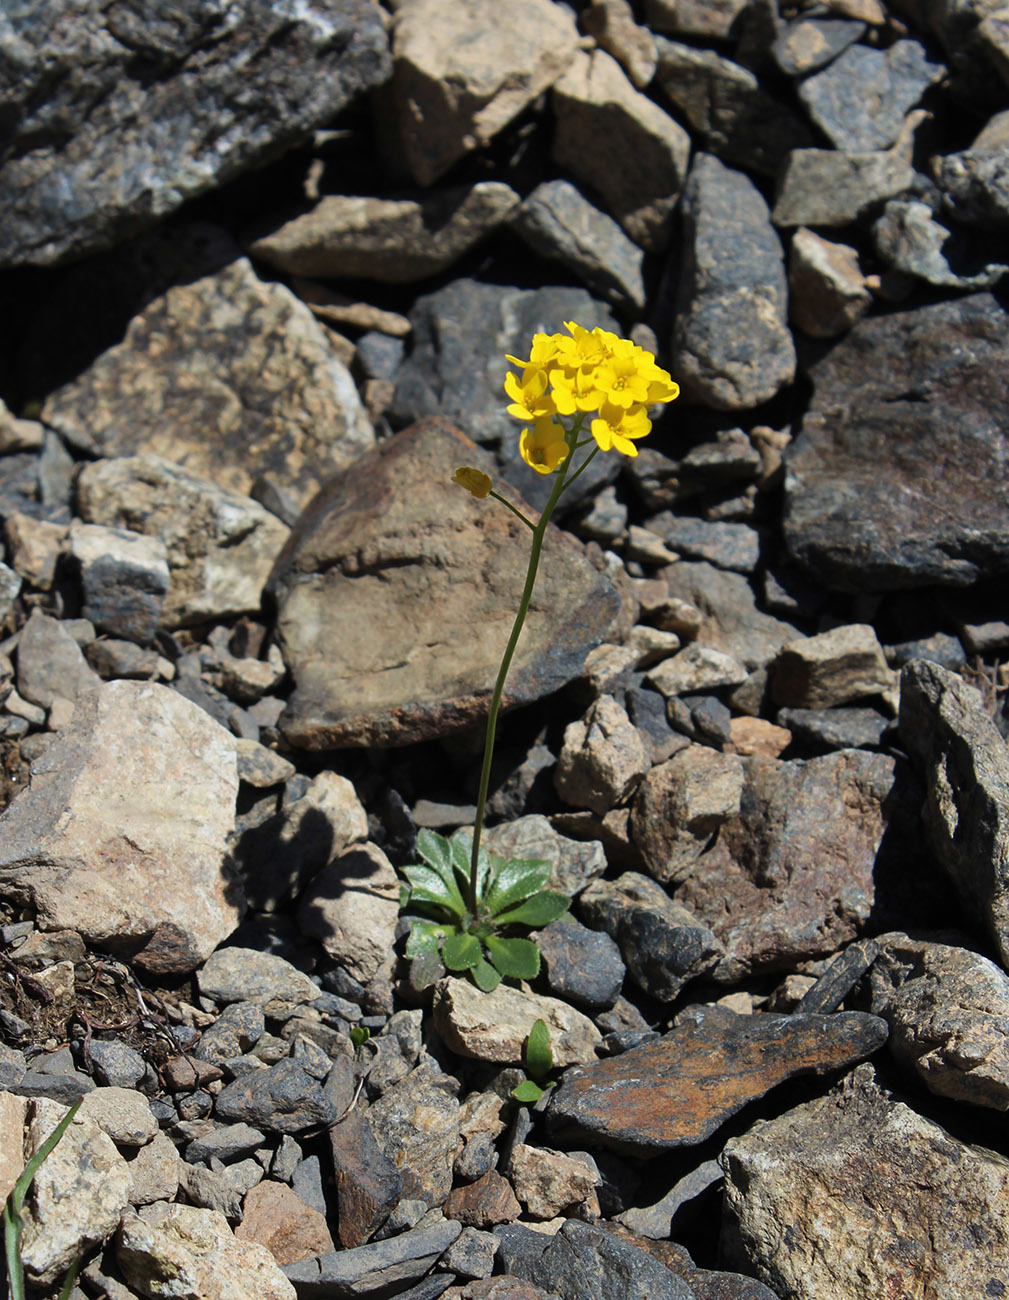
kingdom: Plantae
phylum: Tracheophyta
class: Magnoliopsida
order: Brassicales
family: Brassicaceae
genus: Draba
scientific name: Draba hispida
